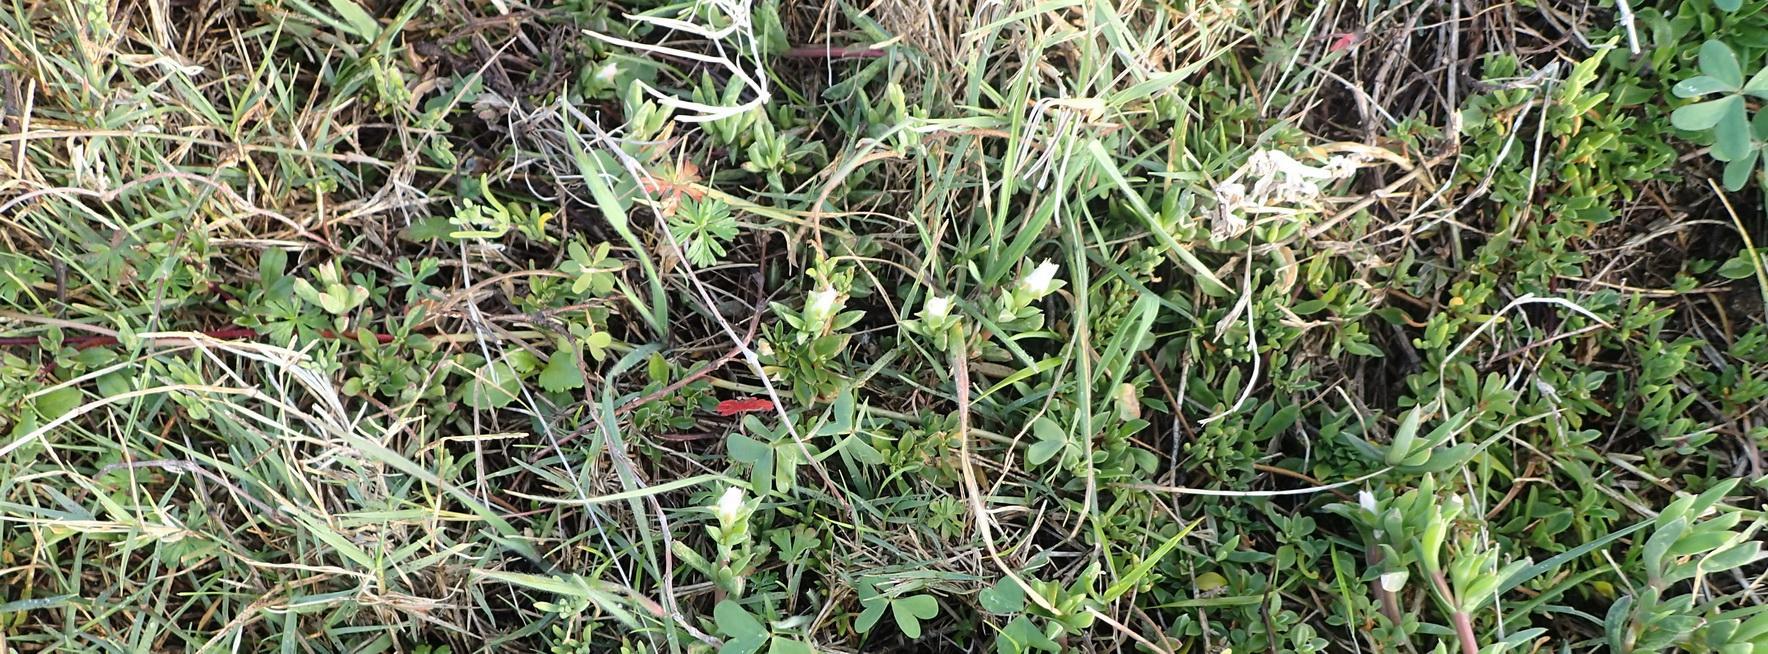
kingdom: Plantae
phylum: Tracheophyta
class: Magnoliopsida
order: Caryophyllales
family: Aizoaceae
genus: Delosperma
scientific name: Delosperma litorale
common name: Seaside delosperma
